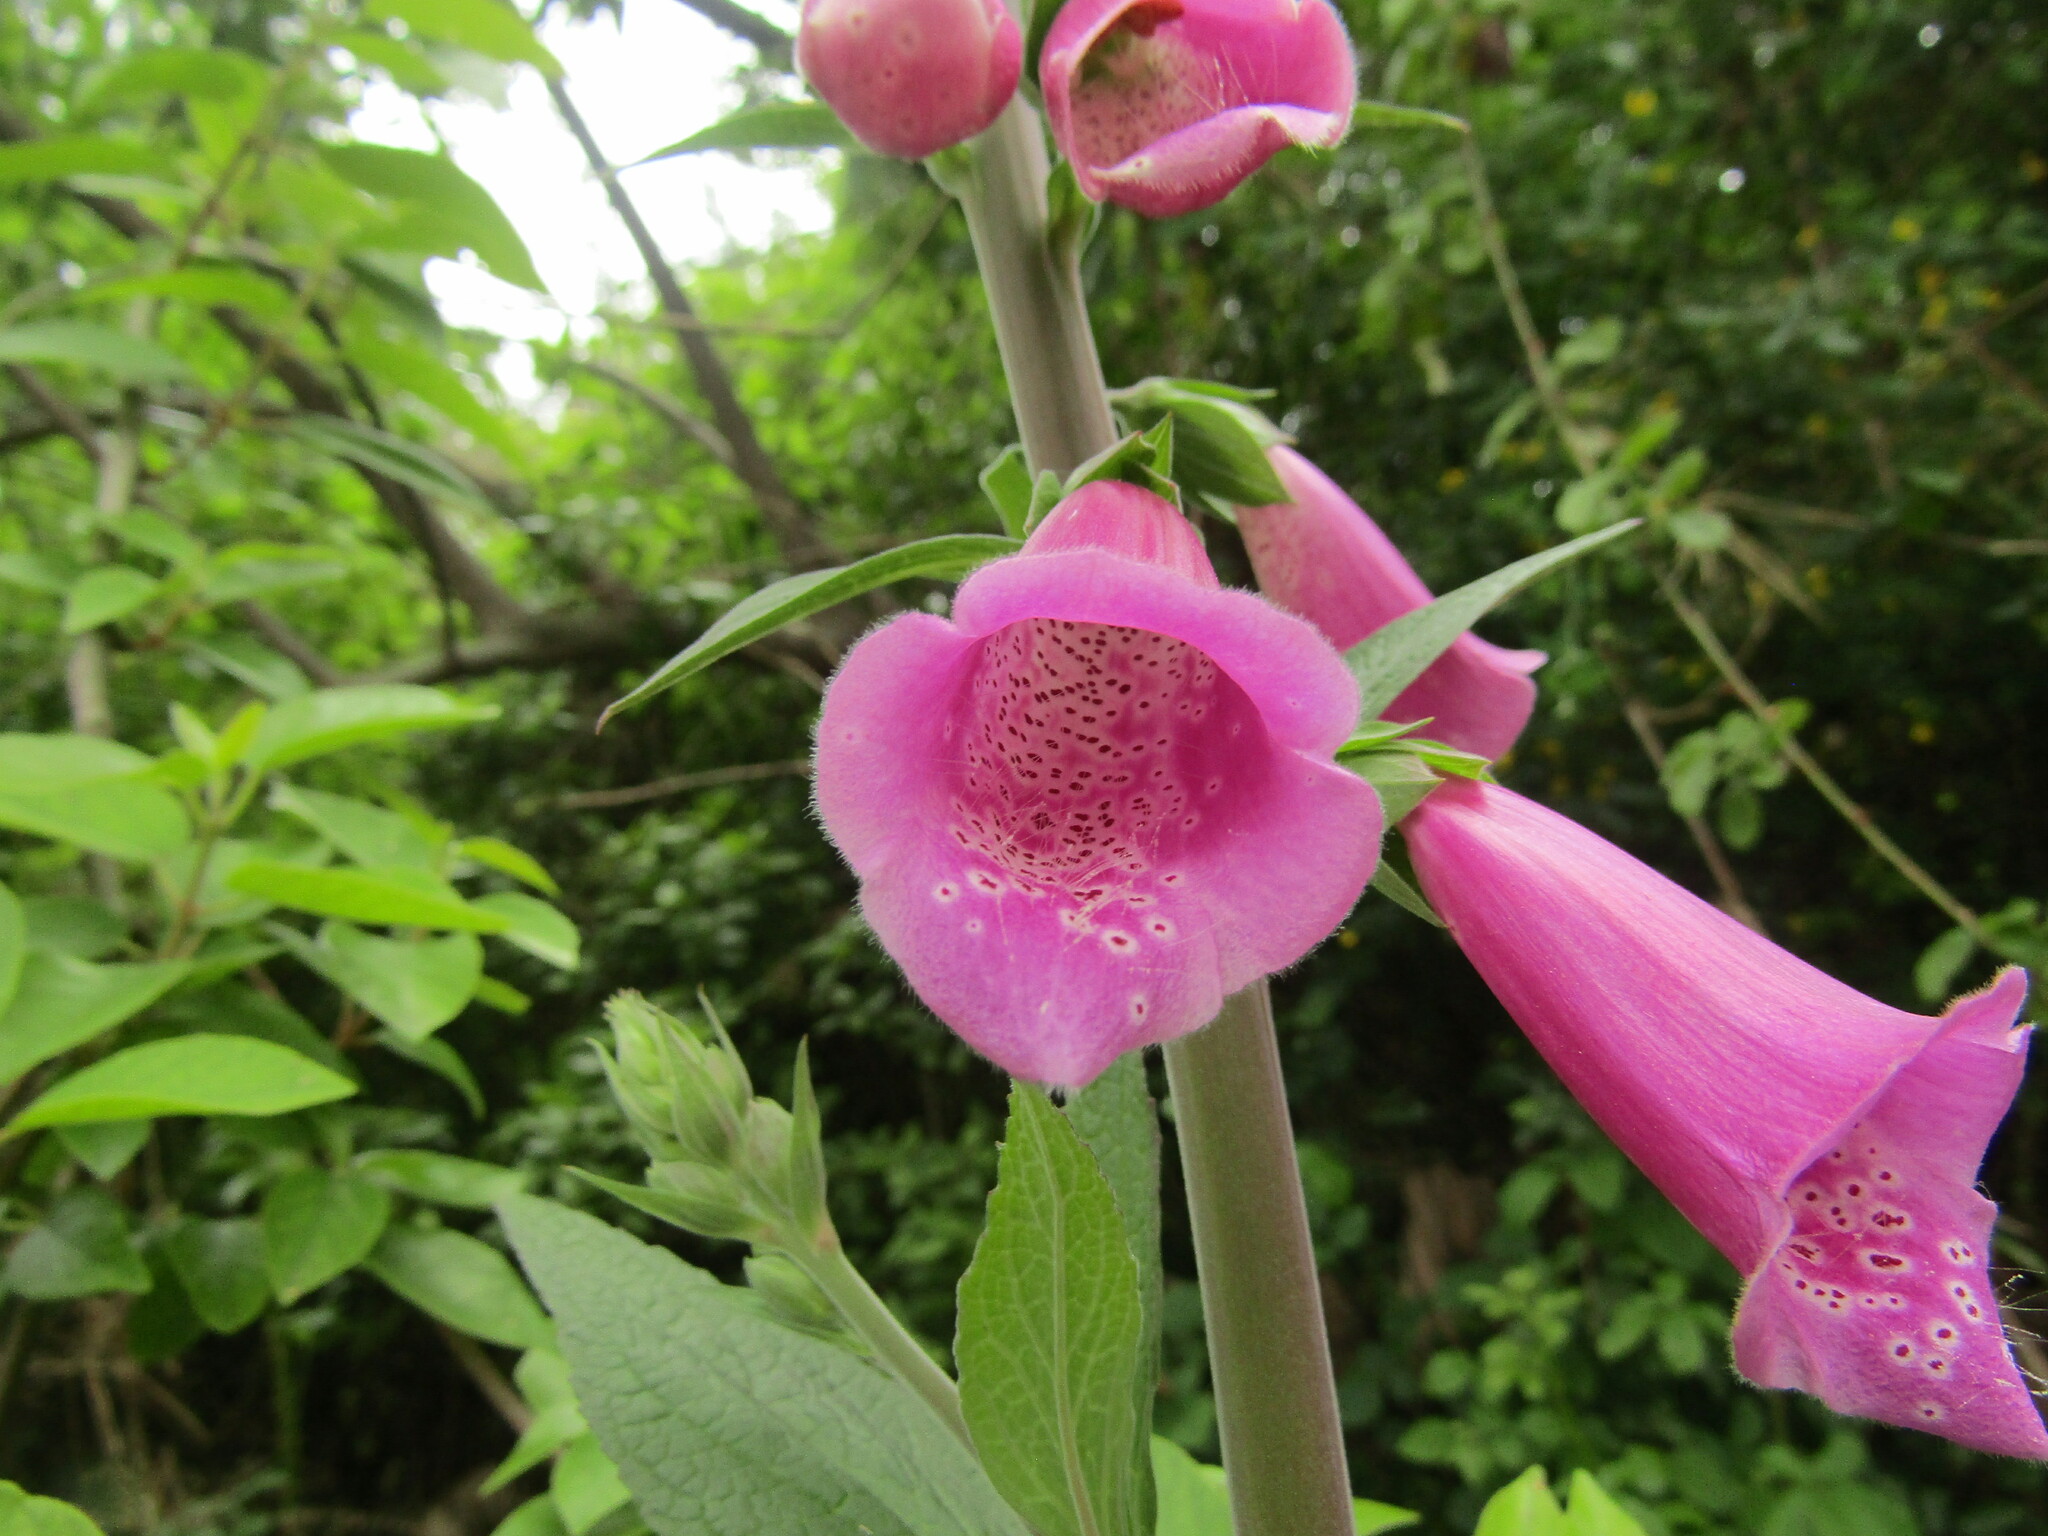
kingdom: Plantae
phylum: Tracheophyta
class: Magnoliopsida
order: Lamiales
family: Plantaginaceae
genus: Digitalis
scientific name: Digitalis purpurea
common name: Foxglove
